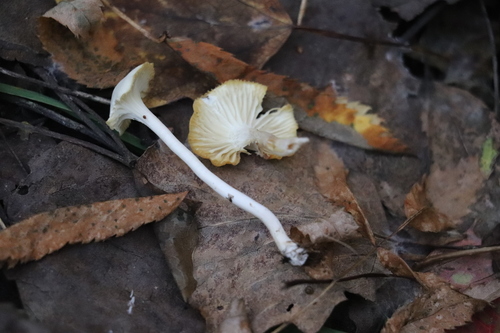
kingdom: Fungi
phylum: Basidiomycota
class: Agaricomycetes
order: Agaricales
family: Hygrophoraceae
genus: Cuphophyllus
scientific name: Cuphophyllus virgineus
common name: Snowy waxcap
